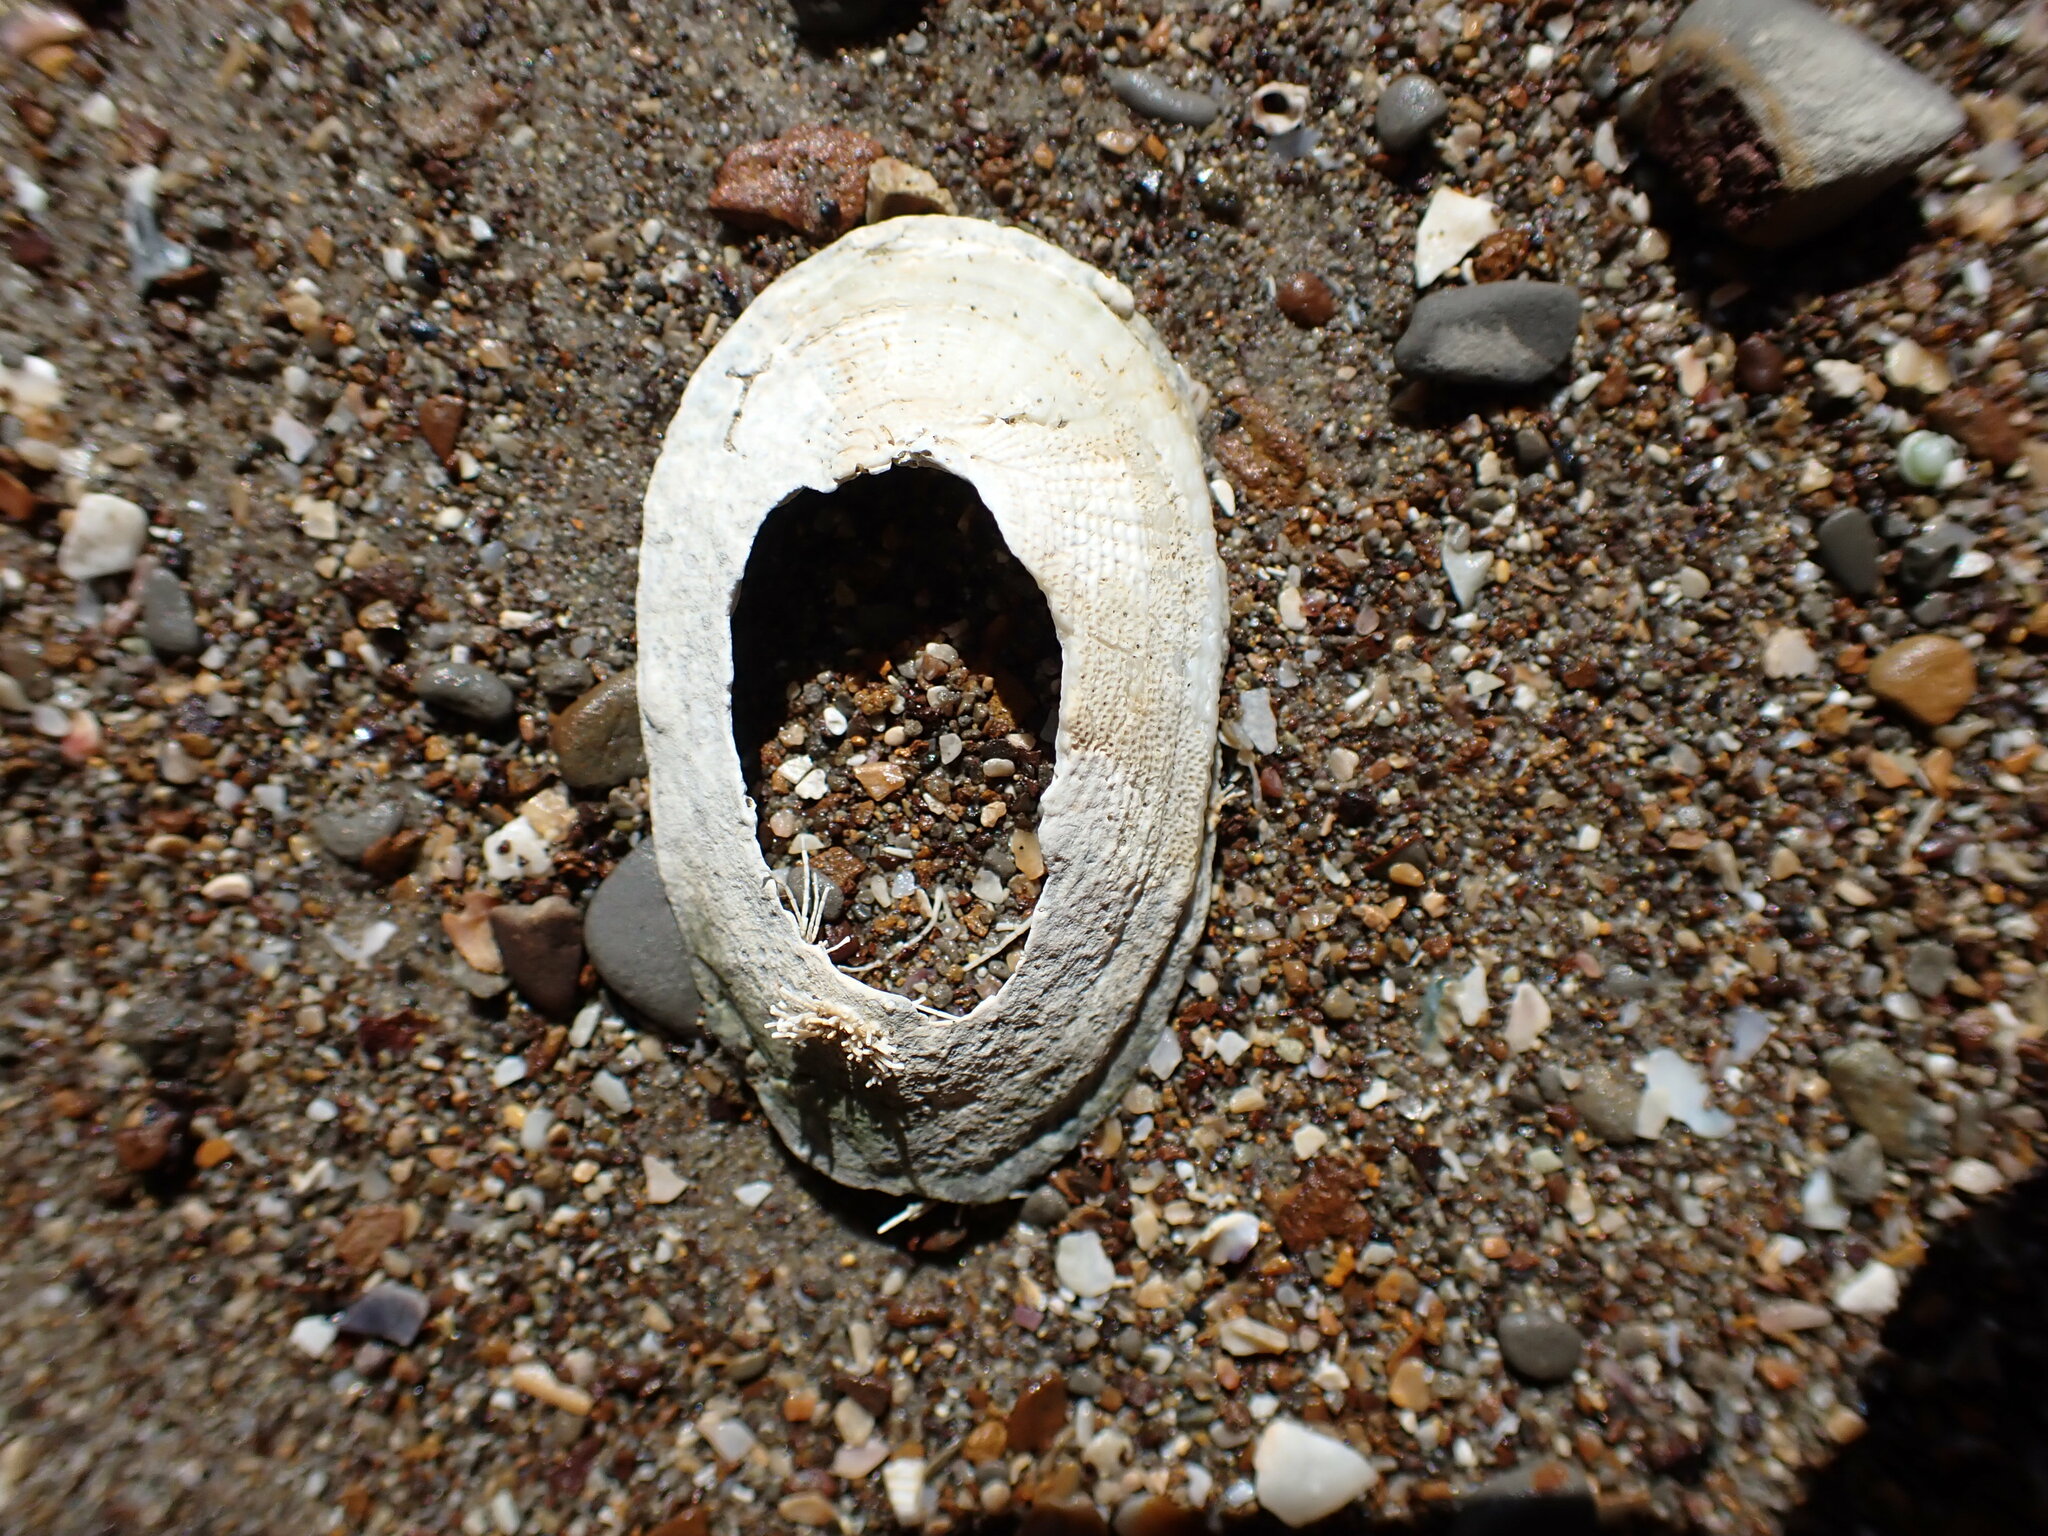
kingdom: Animalia
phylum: Mollusca
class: Gastropoda
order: Lepetellida
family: Fissurellidae
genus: Tugali
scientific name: Tugali elegans
